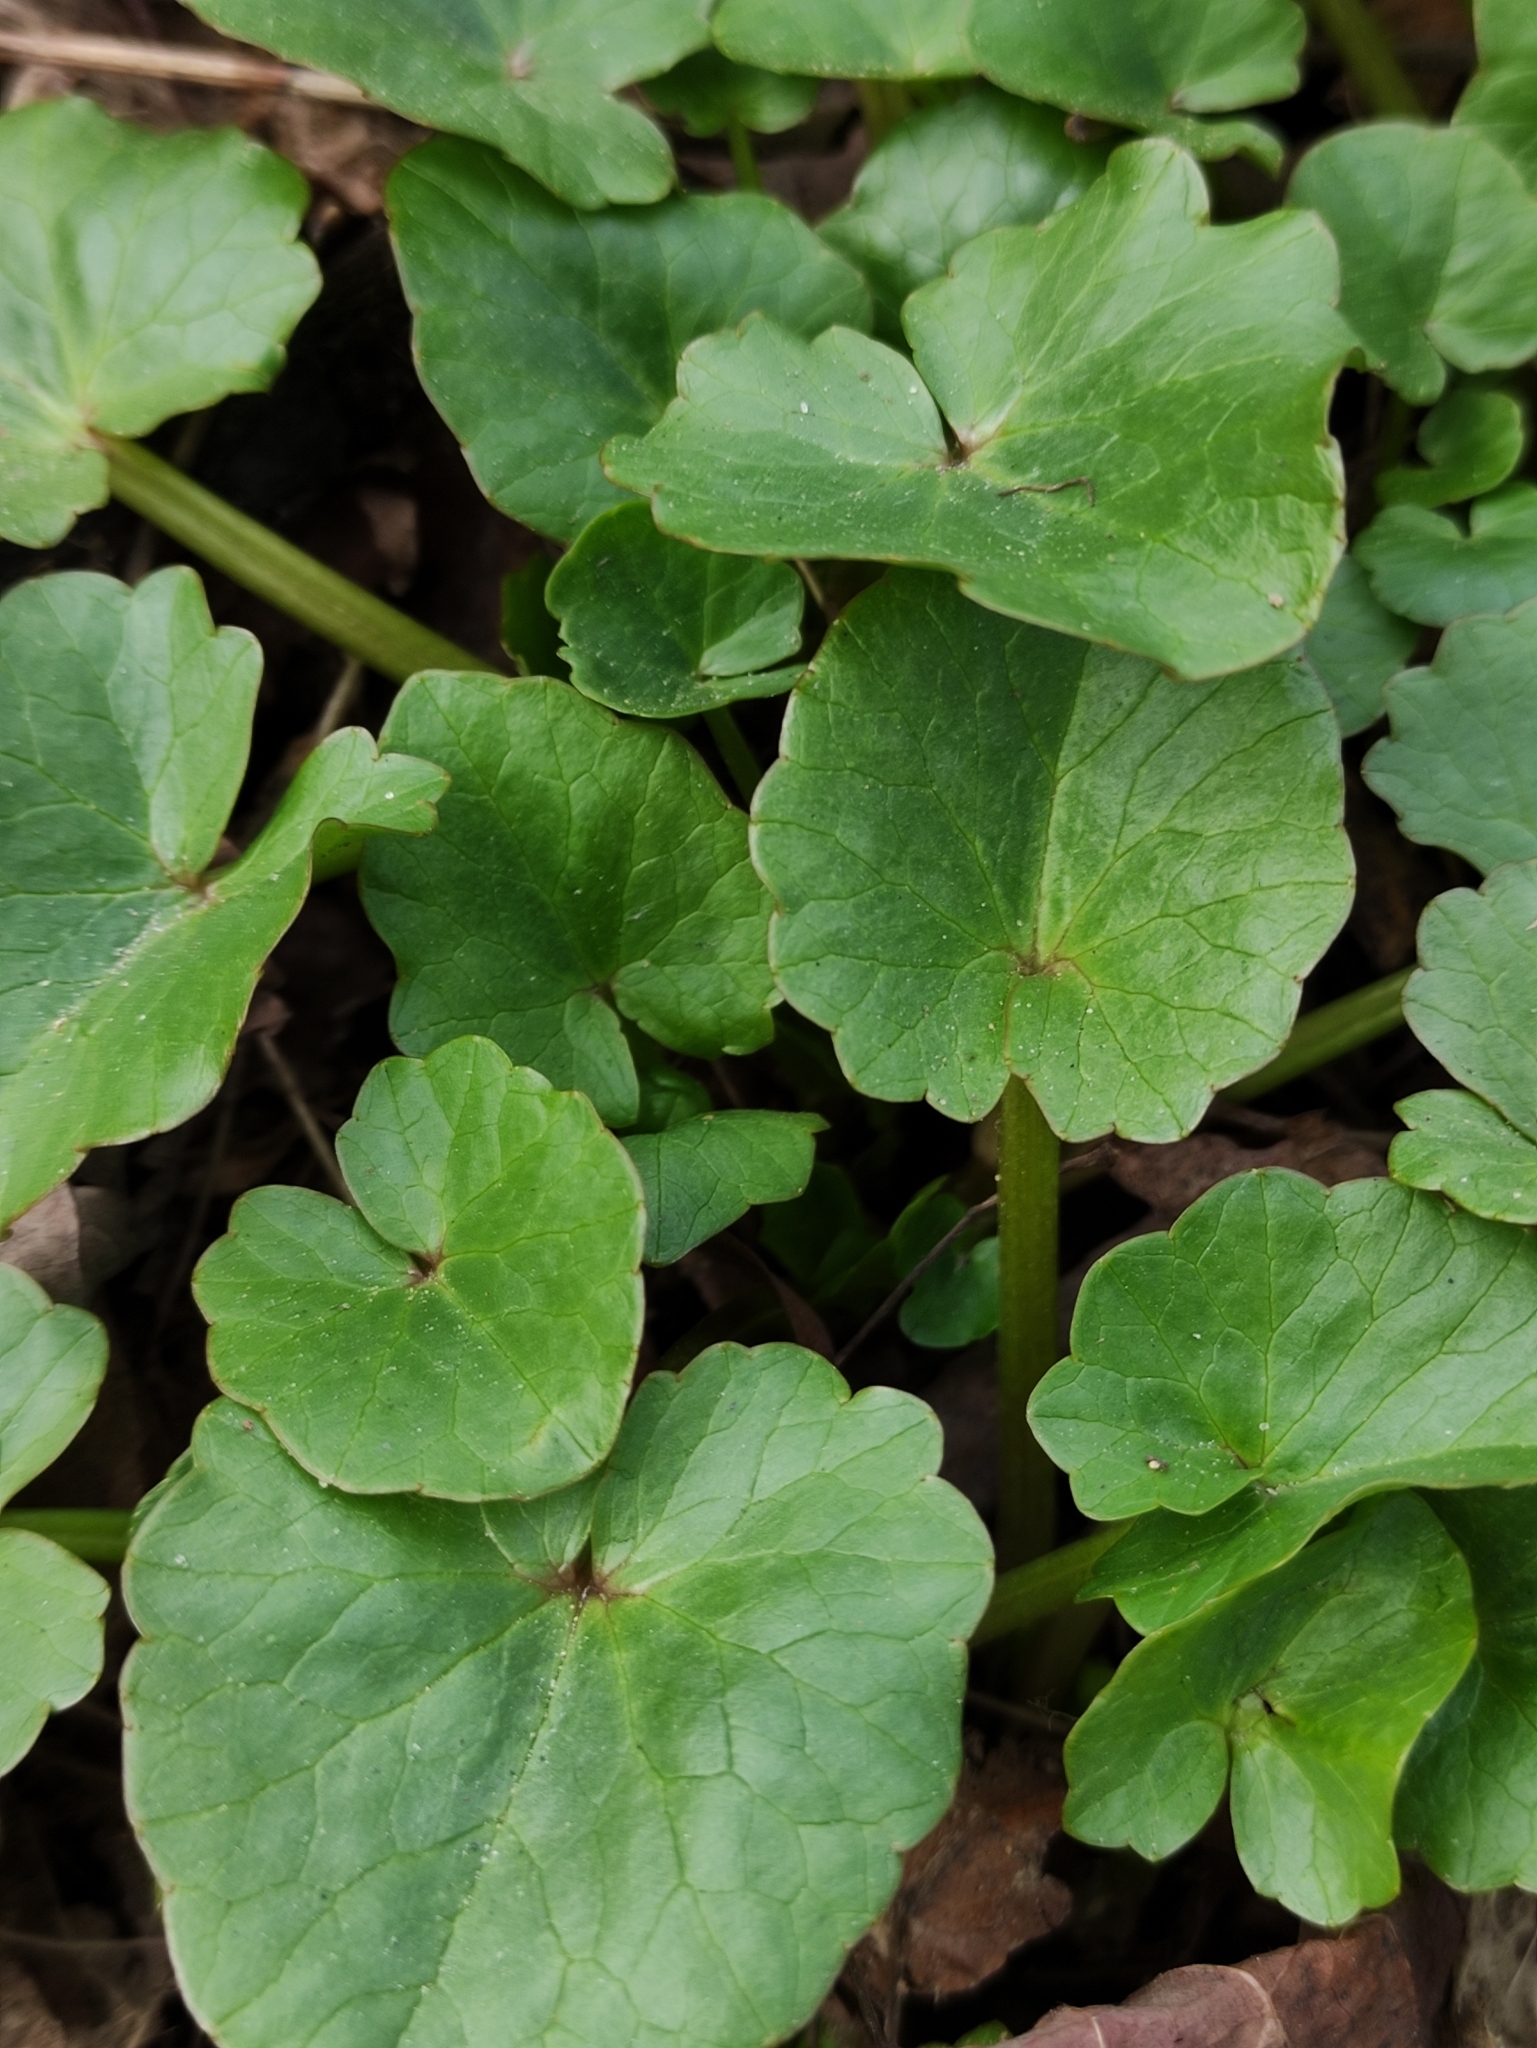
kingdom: Plantae
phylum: Tracheophyta
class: Magnoliopsida
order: Ranunculales
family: Ranunculaceae
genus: Ficaria
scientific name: Ficaria verna
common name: Lesser celandine
